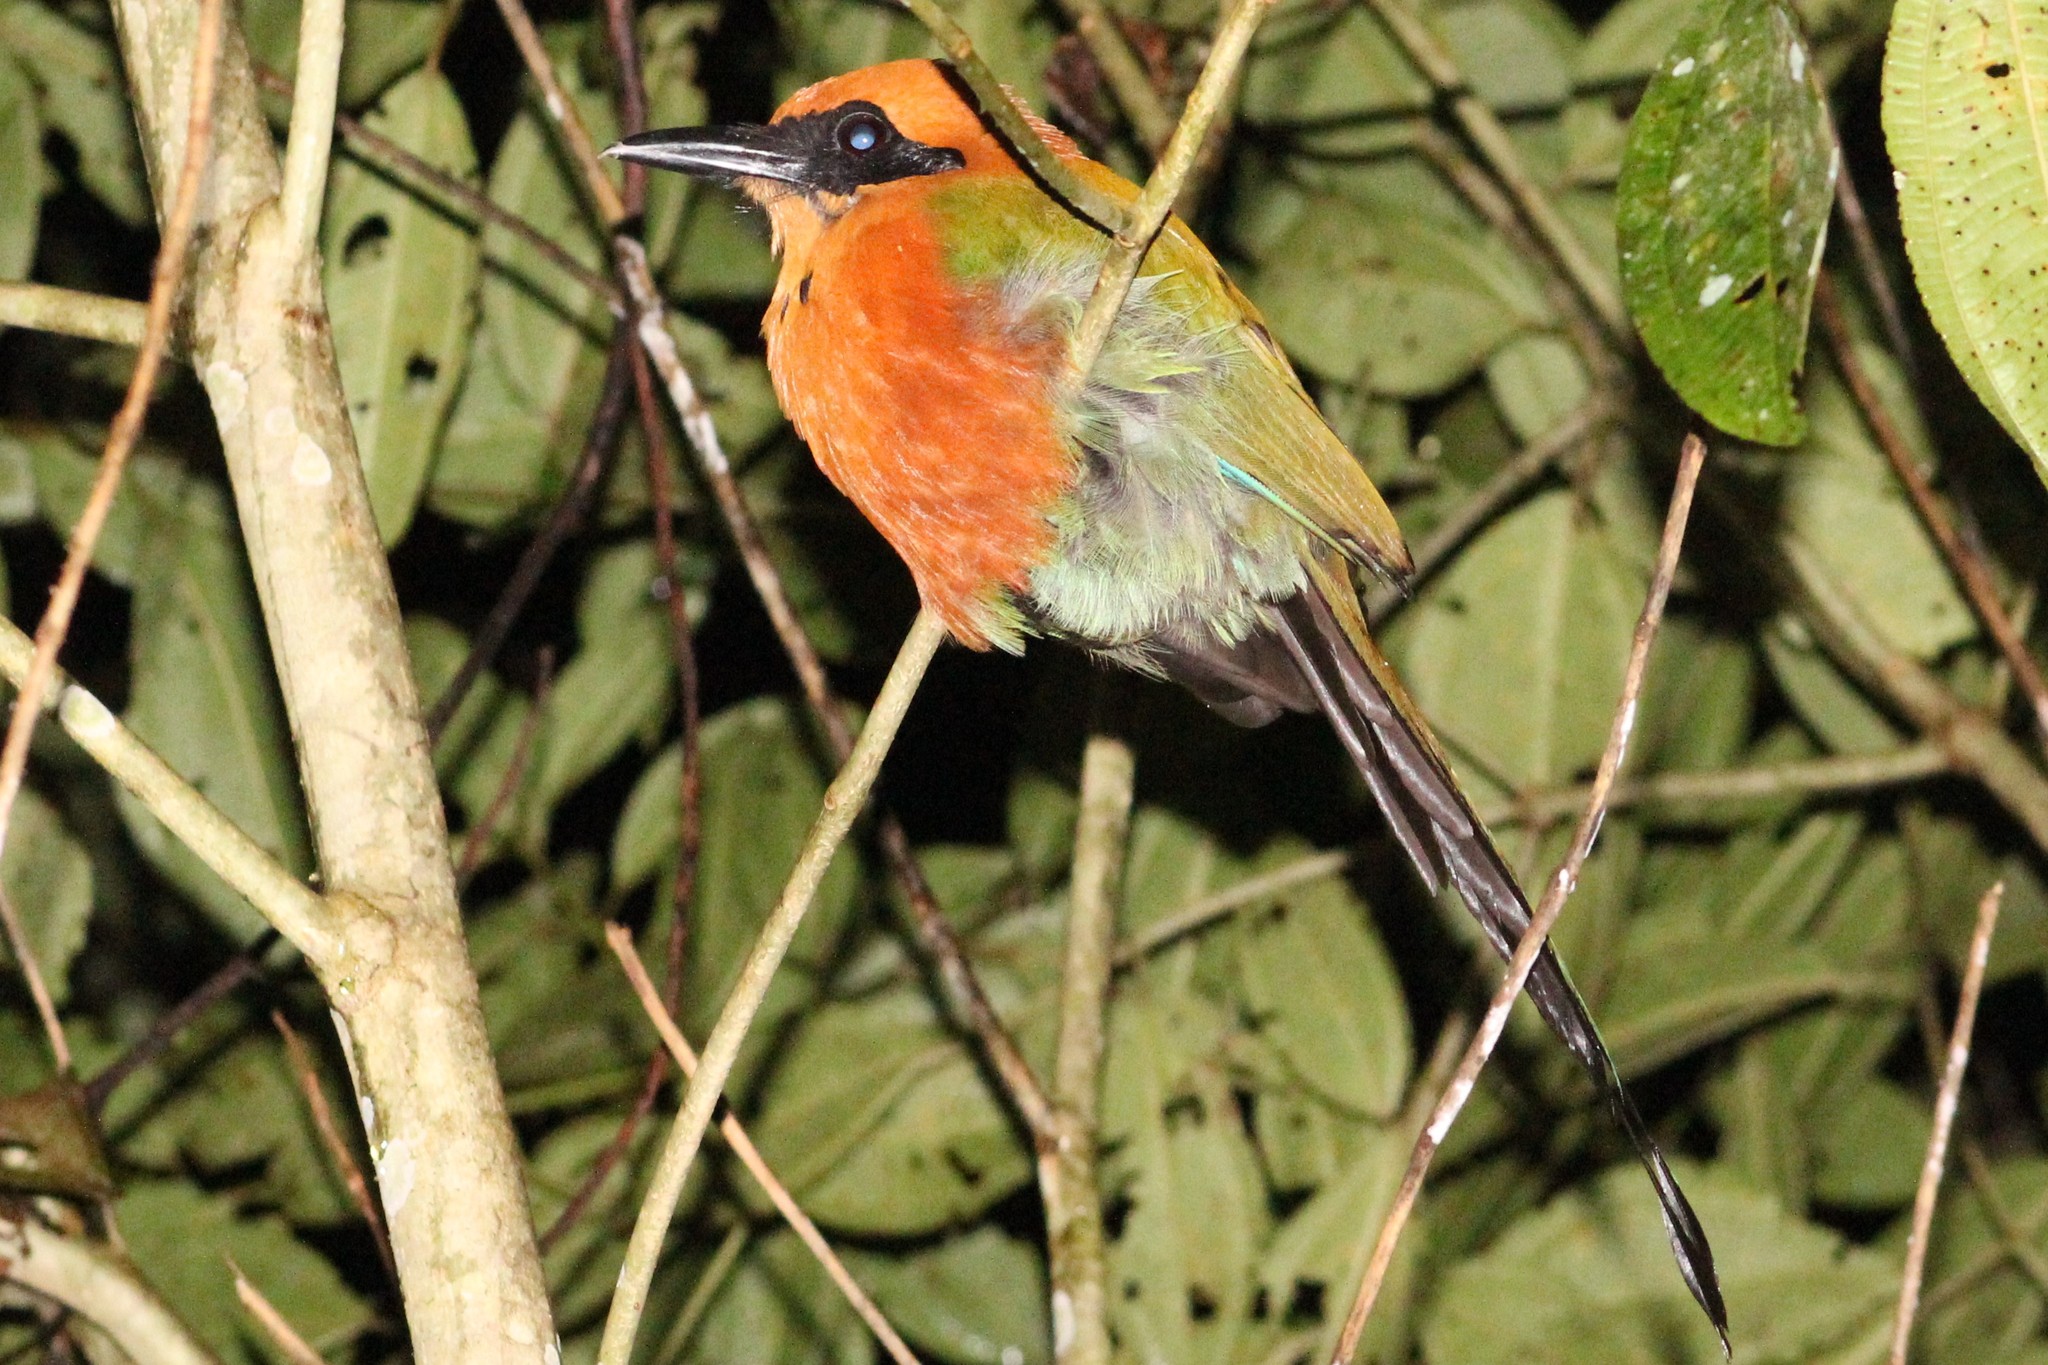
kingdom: Animalia
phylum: Chordata
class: Aves
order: Coraciiformes
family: Momotidae
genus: Baryphthengus
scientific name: Baryphthengus martii
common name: Rufous motmot
